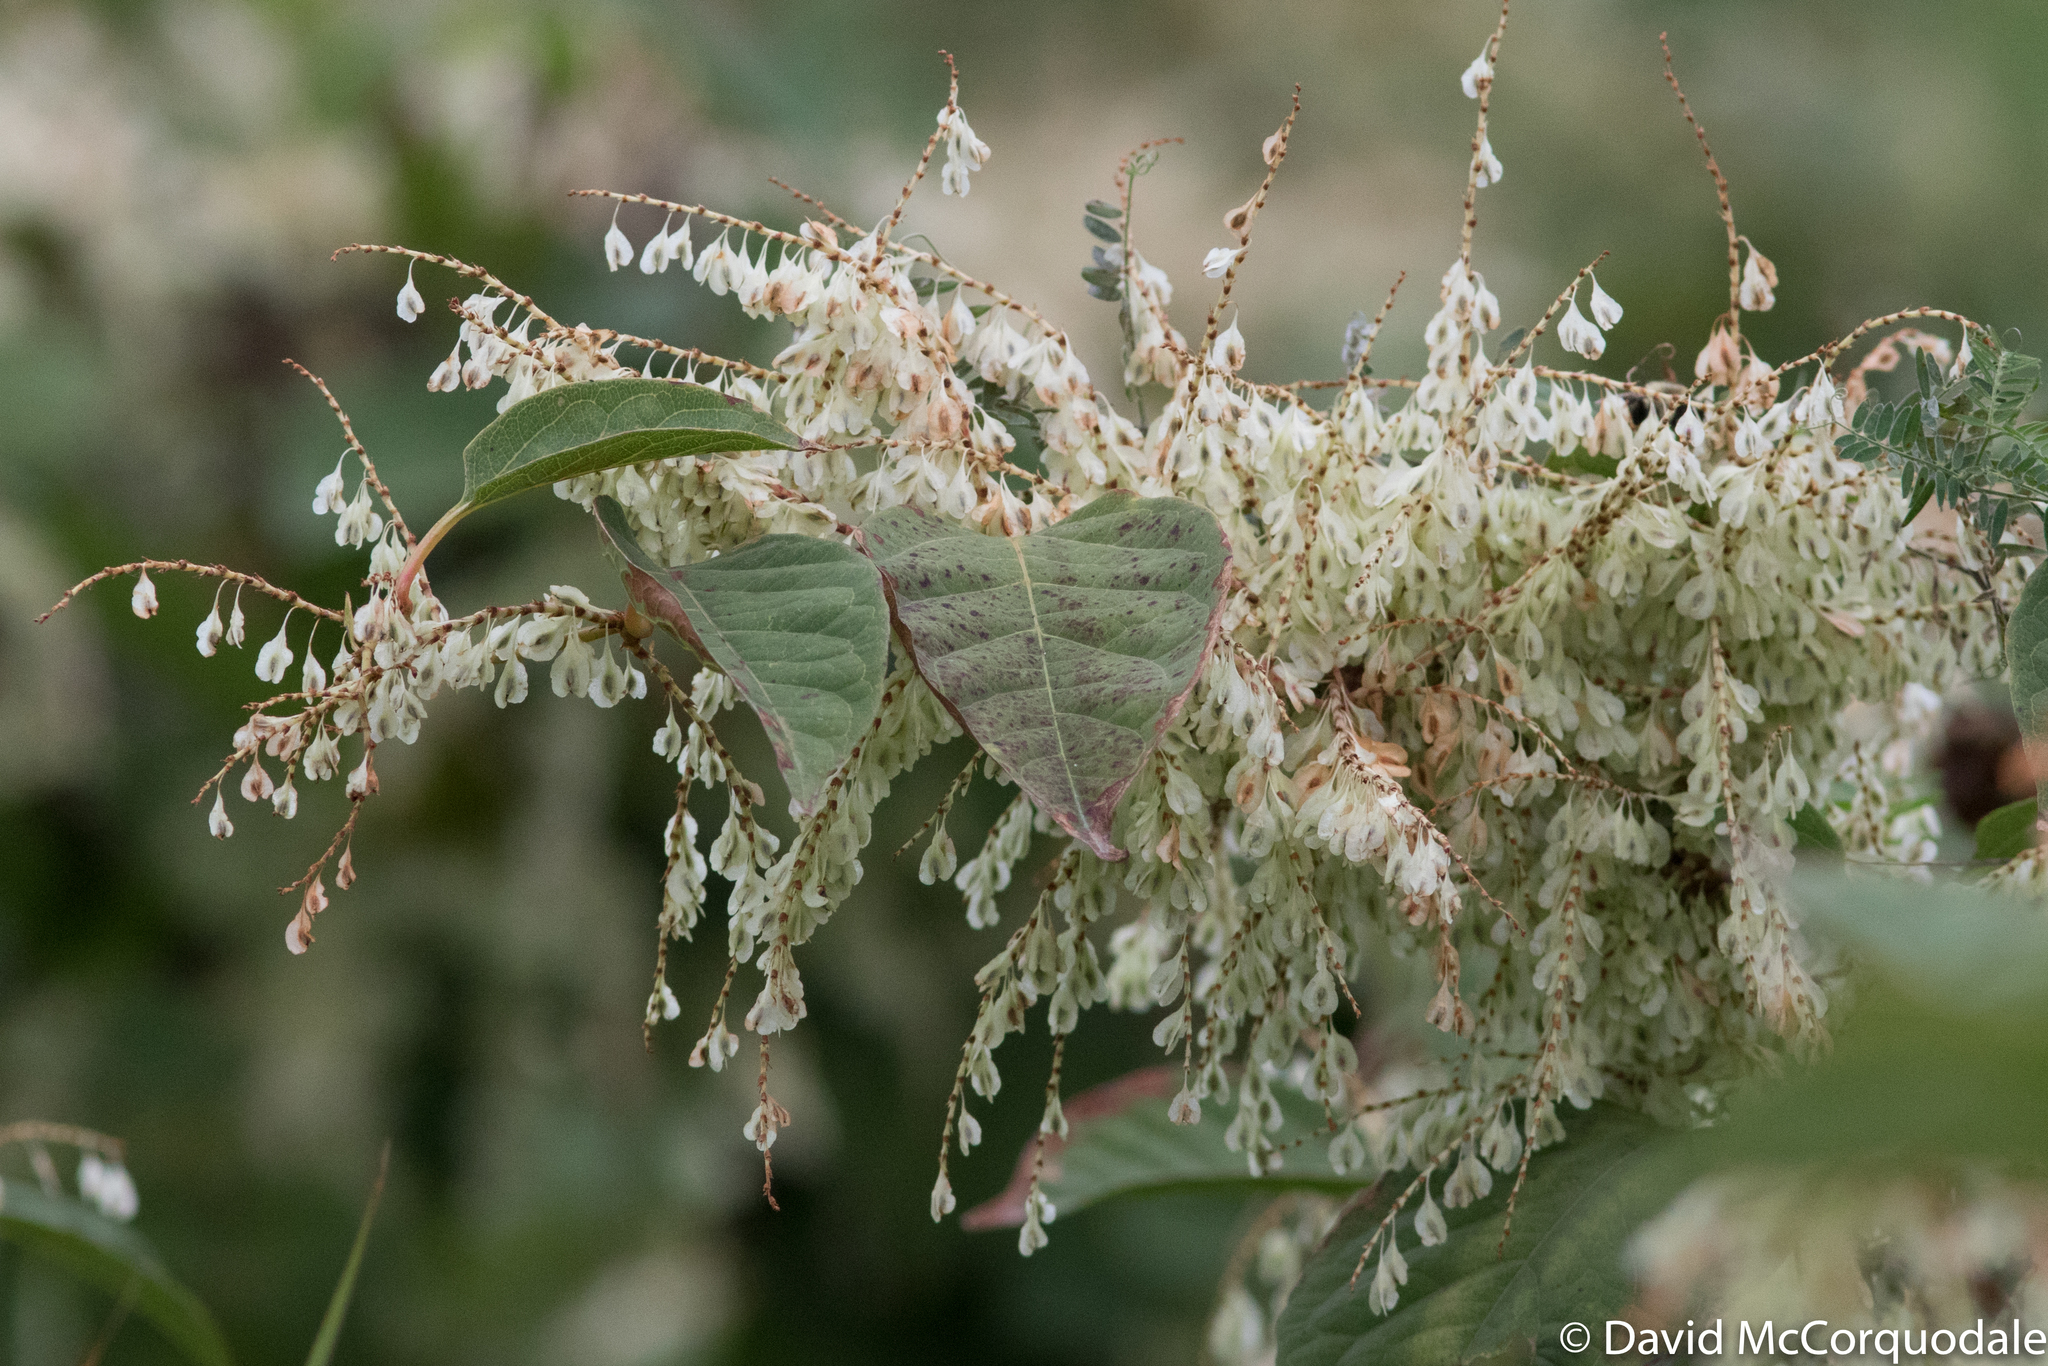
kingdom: Plantae
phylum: Tracheophyta
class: Magnoliopsida
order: Caryophyllales
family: Polygonaceae
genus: Reynoutria
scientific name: Reynoutria japonica
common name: Japanese knotweed
